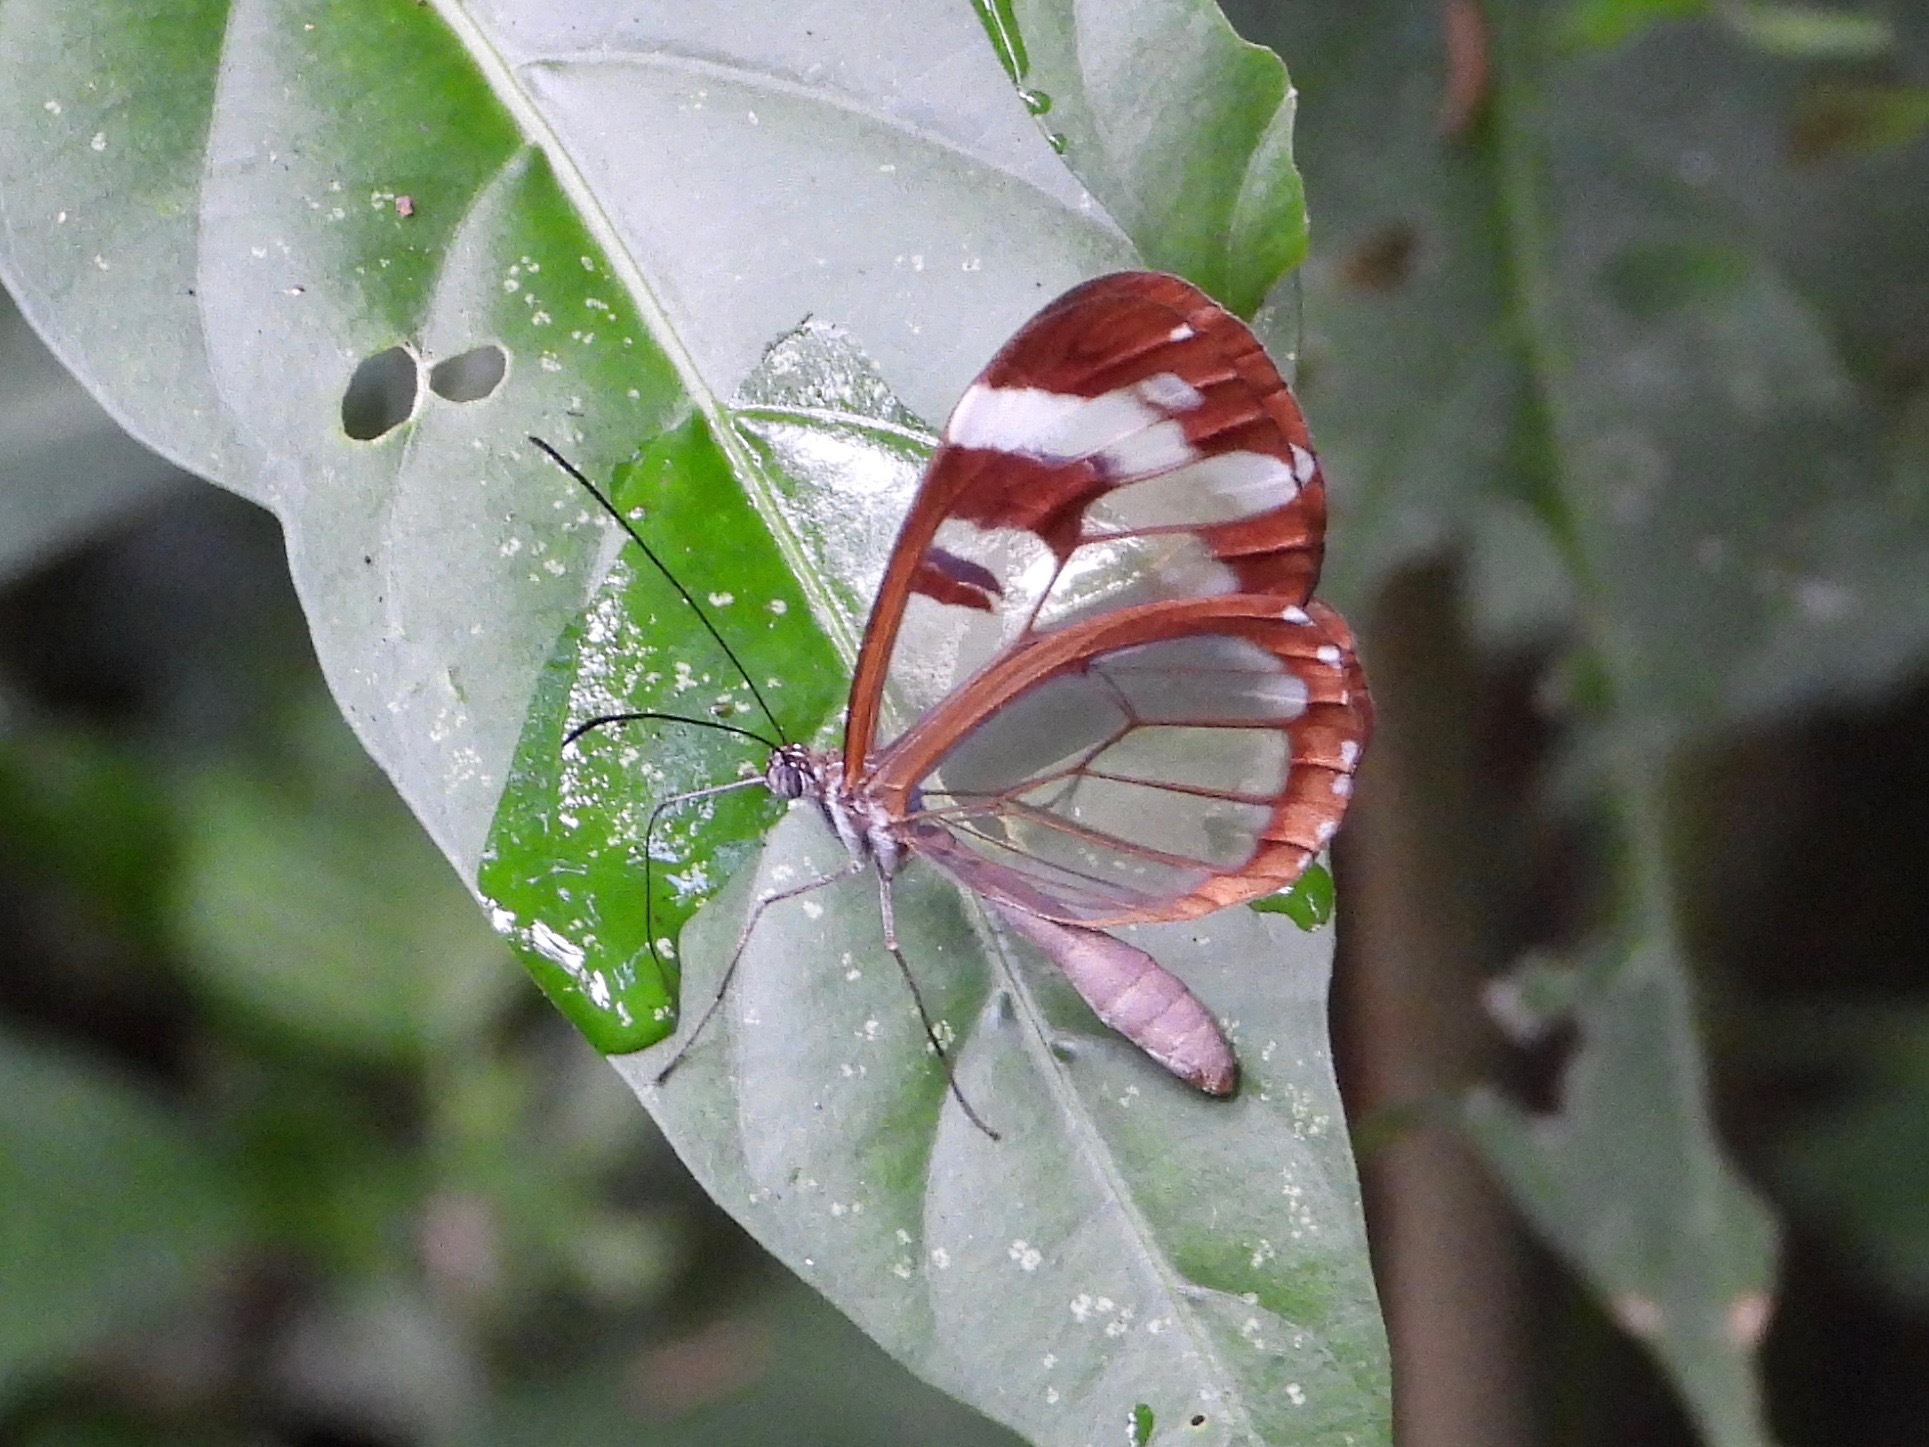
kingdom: Animalia
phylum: Arthropoda
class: Insecta
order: Lepidoptera
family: Nymphalidae
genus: Oleria
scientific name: Oleria zea
